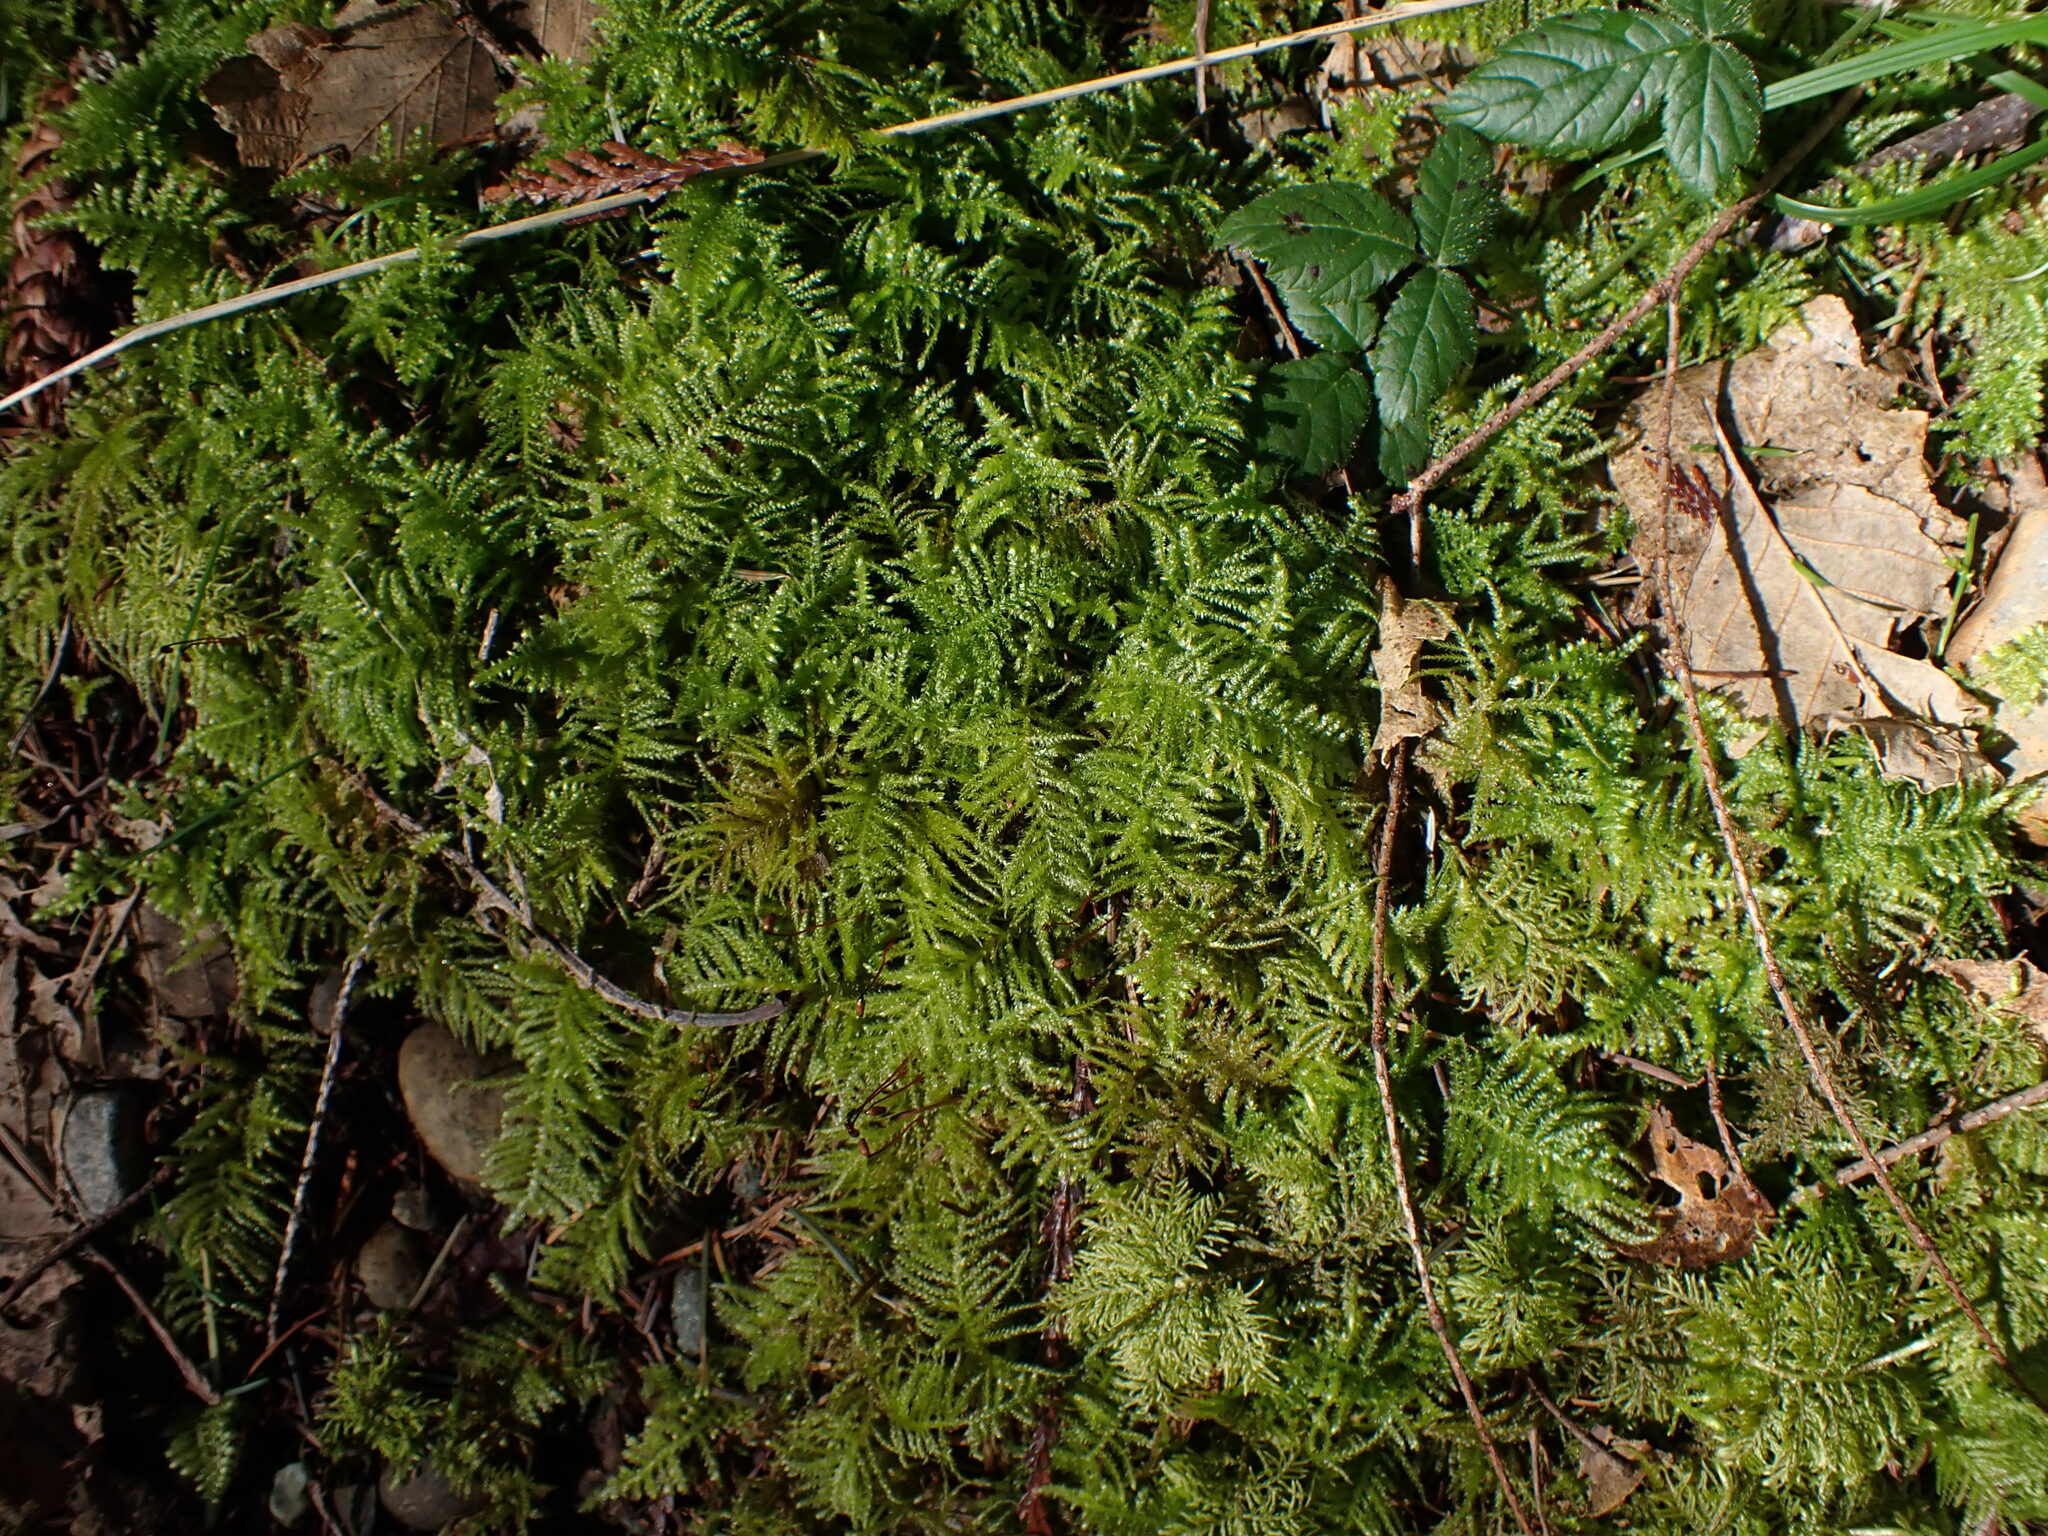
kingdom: Plantae
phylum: Bryophyta
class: Bryopsida
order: Hypnales
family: Brachytheciaceae
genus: Kindbergia
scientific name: Kindbergia oregana
